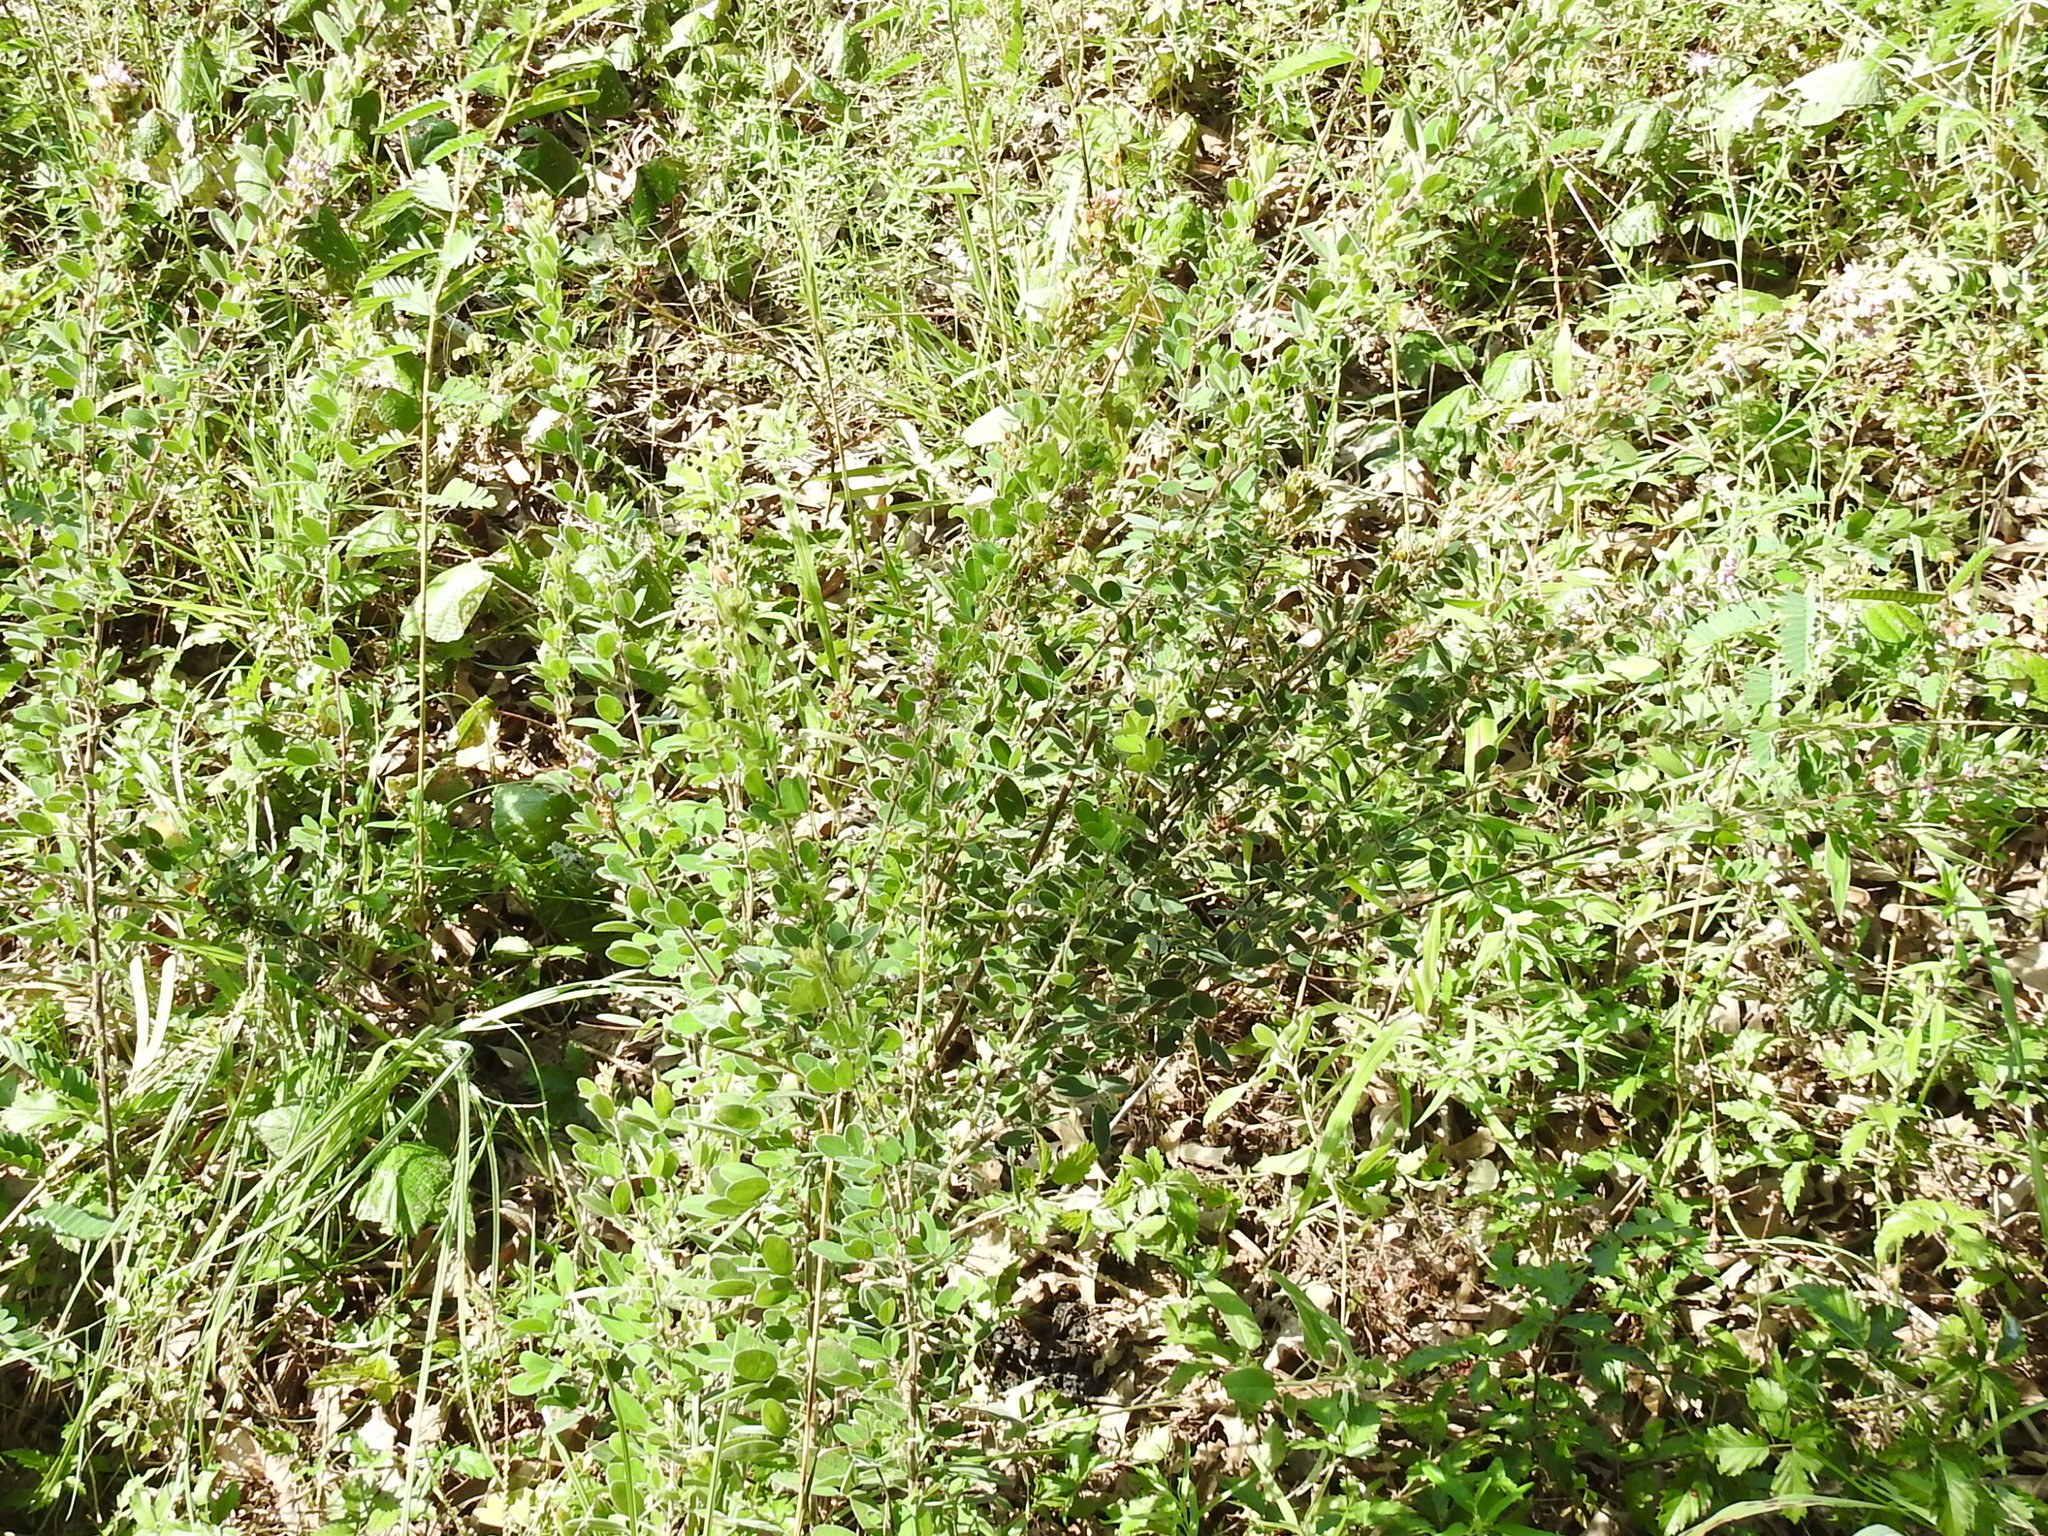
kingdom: Plantae
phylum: Tracheophyta
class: Magnoliopsida
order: Fabales
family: Fabaceae
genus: Lespedeza
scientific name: Lespedeza stuevei
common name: Tall bush-clover
